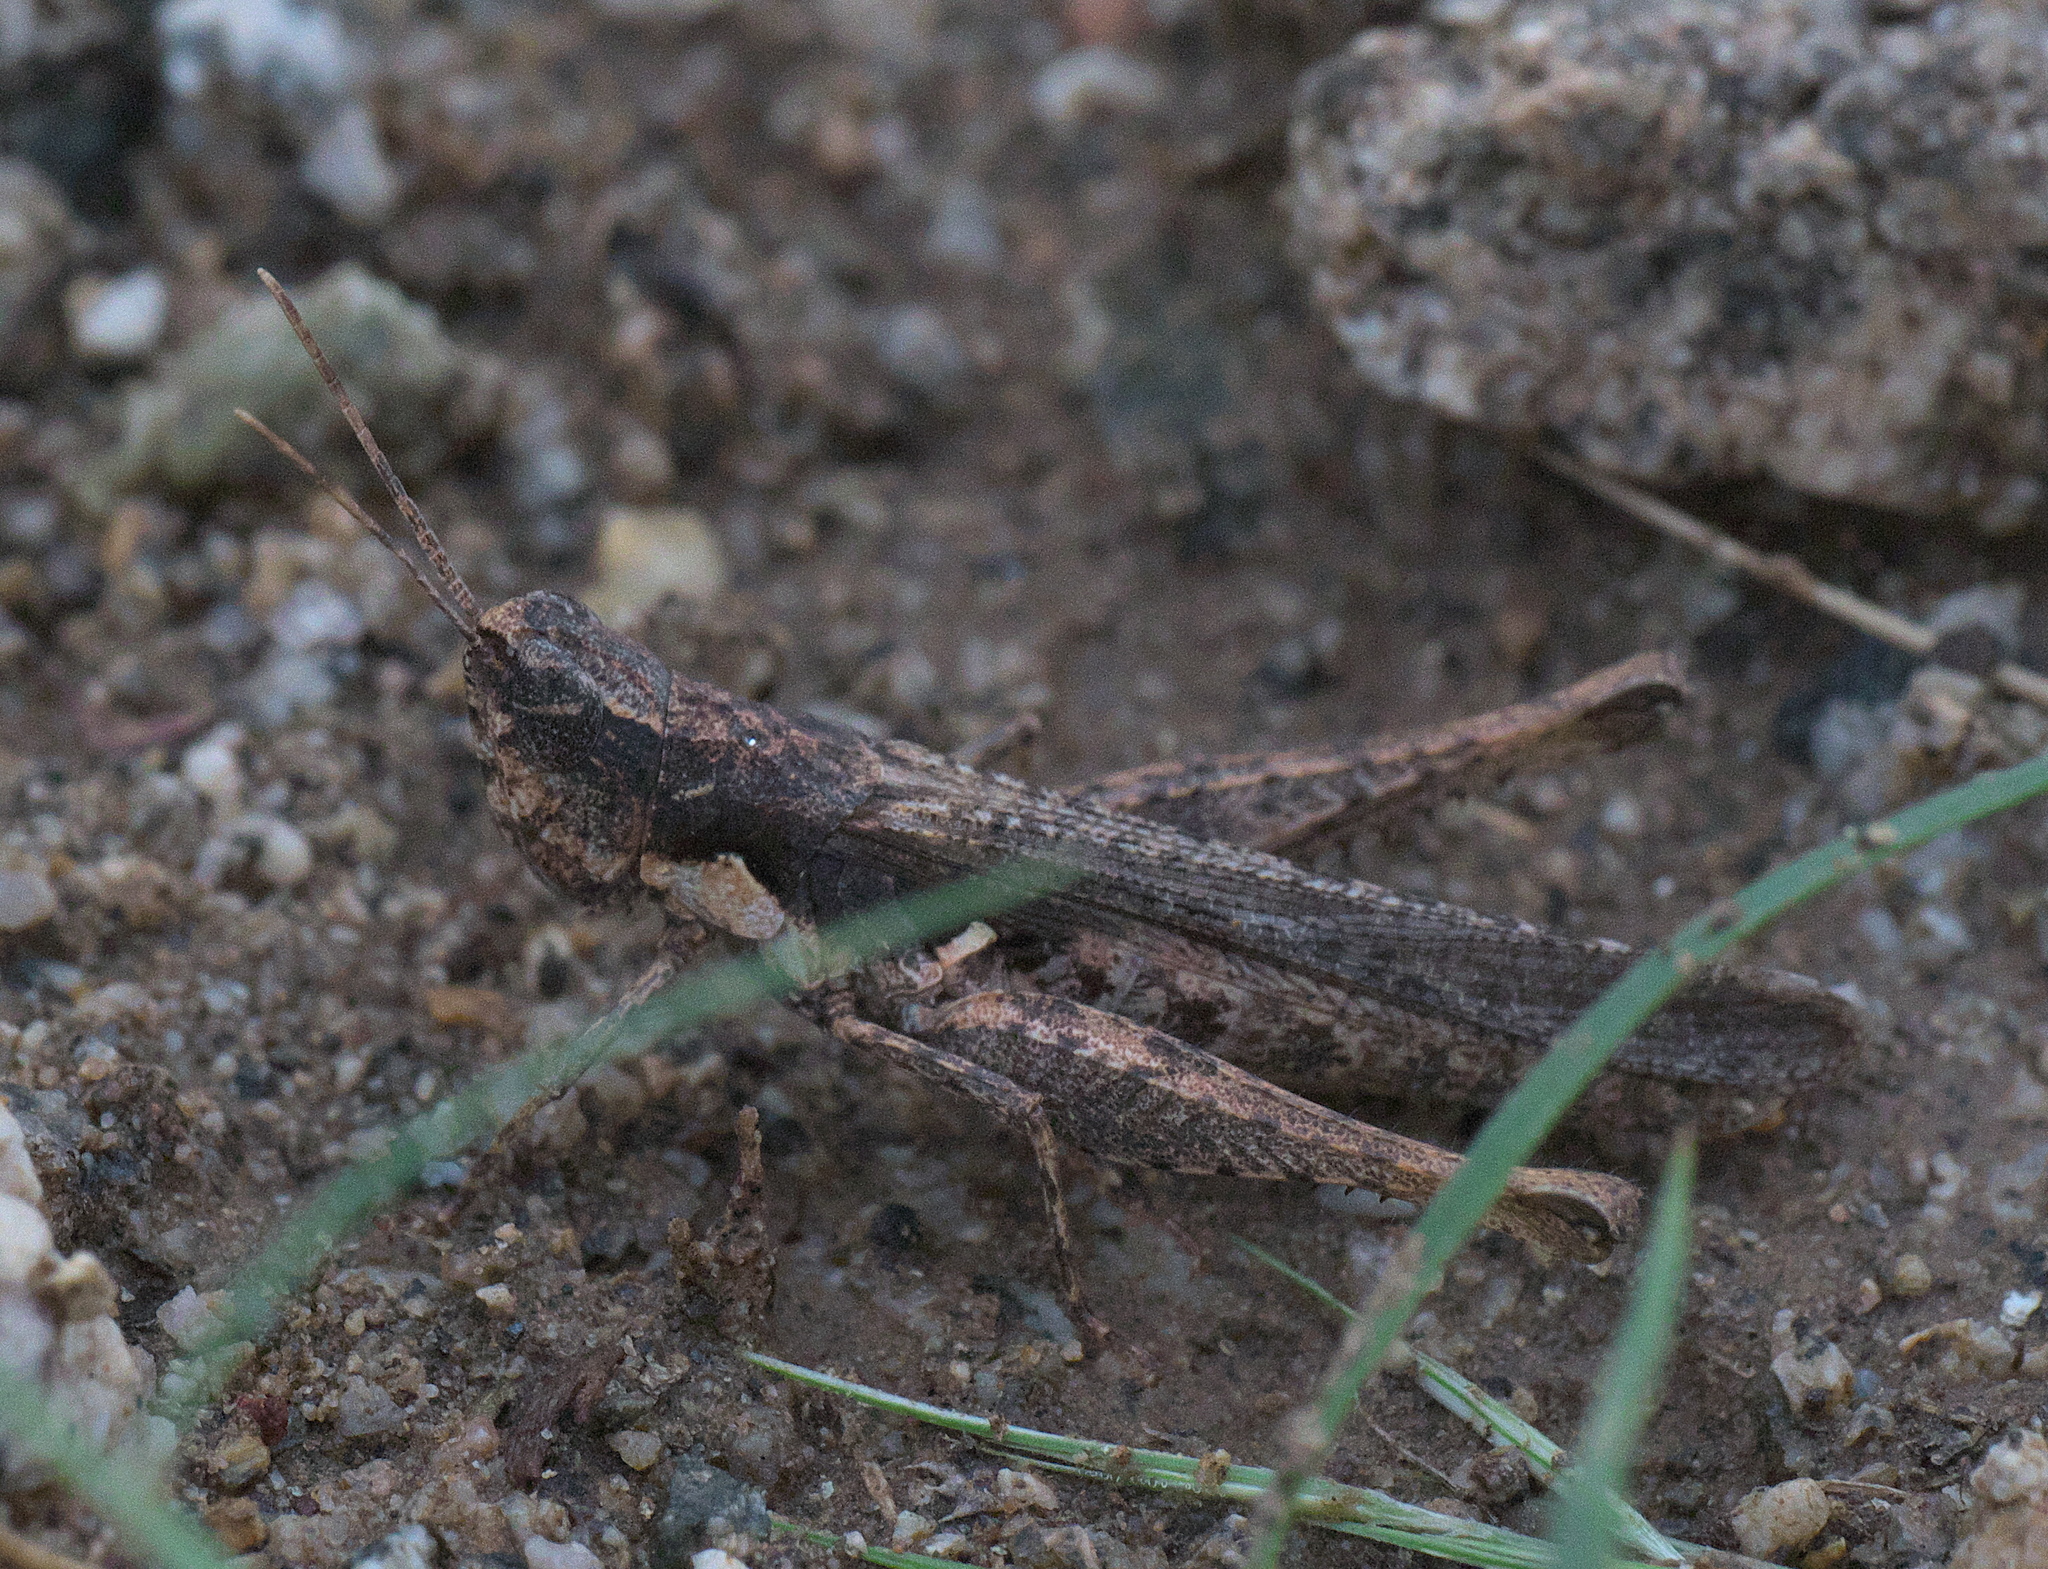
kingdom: Animalia
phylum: Arthropoda
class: Insecta
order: Orthoptera
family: Acrididae
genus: Acantherus
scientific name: Acantherus piperatus
